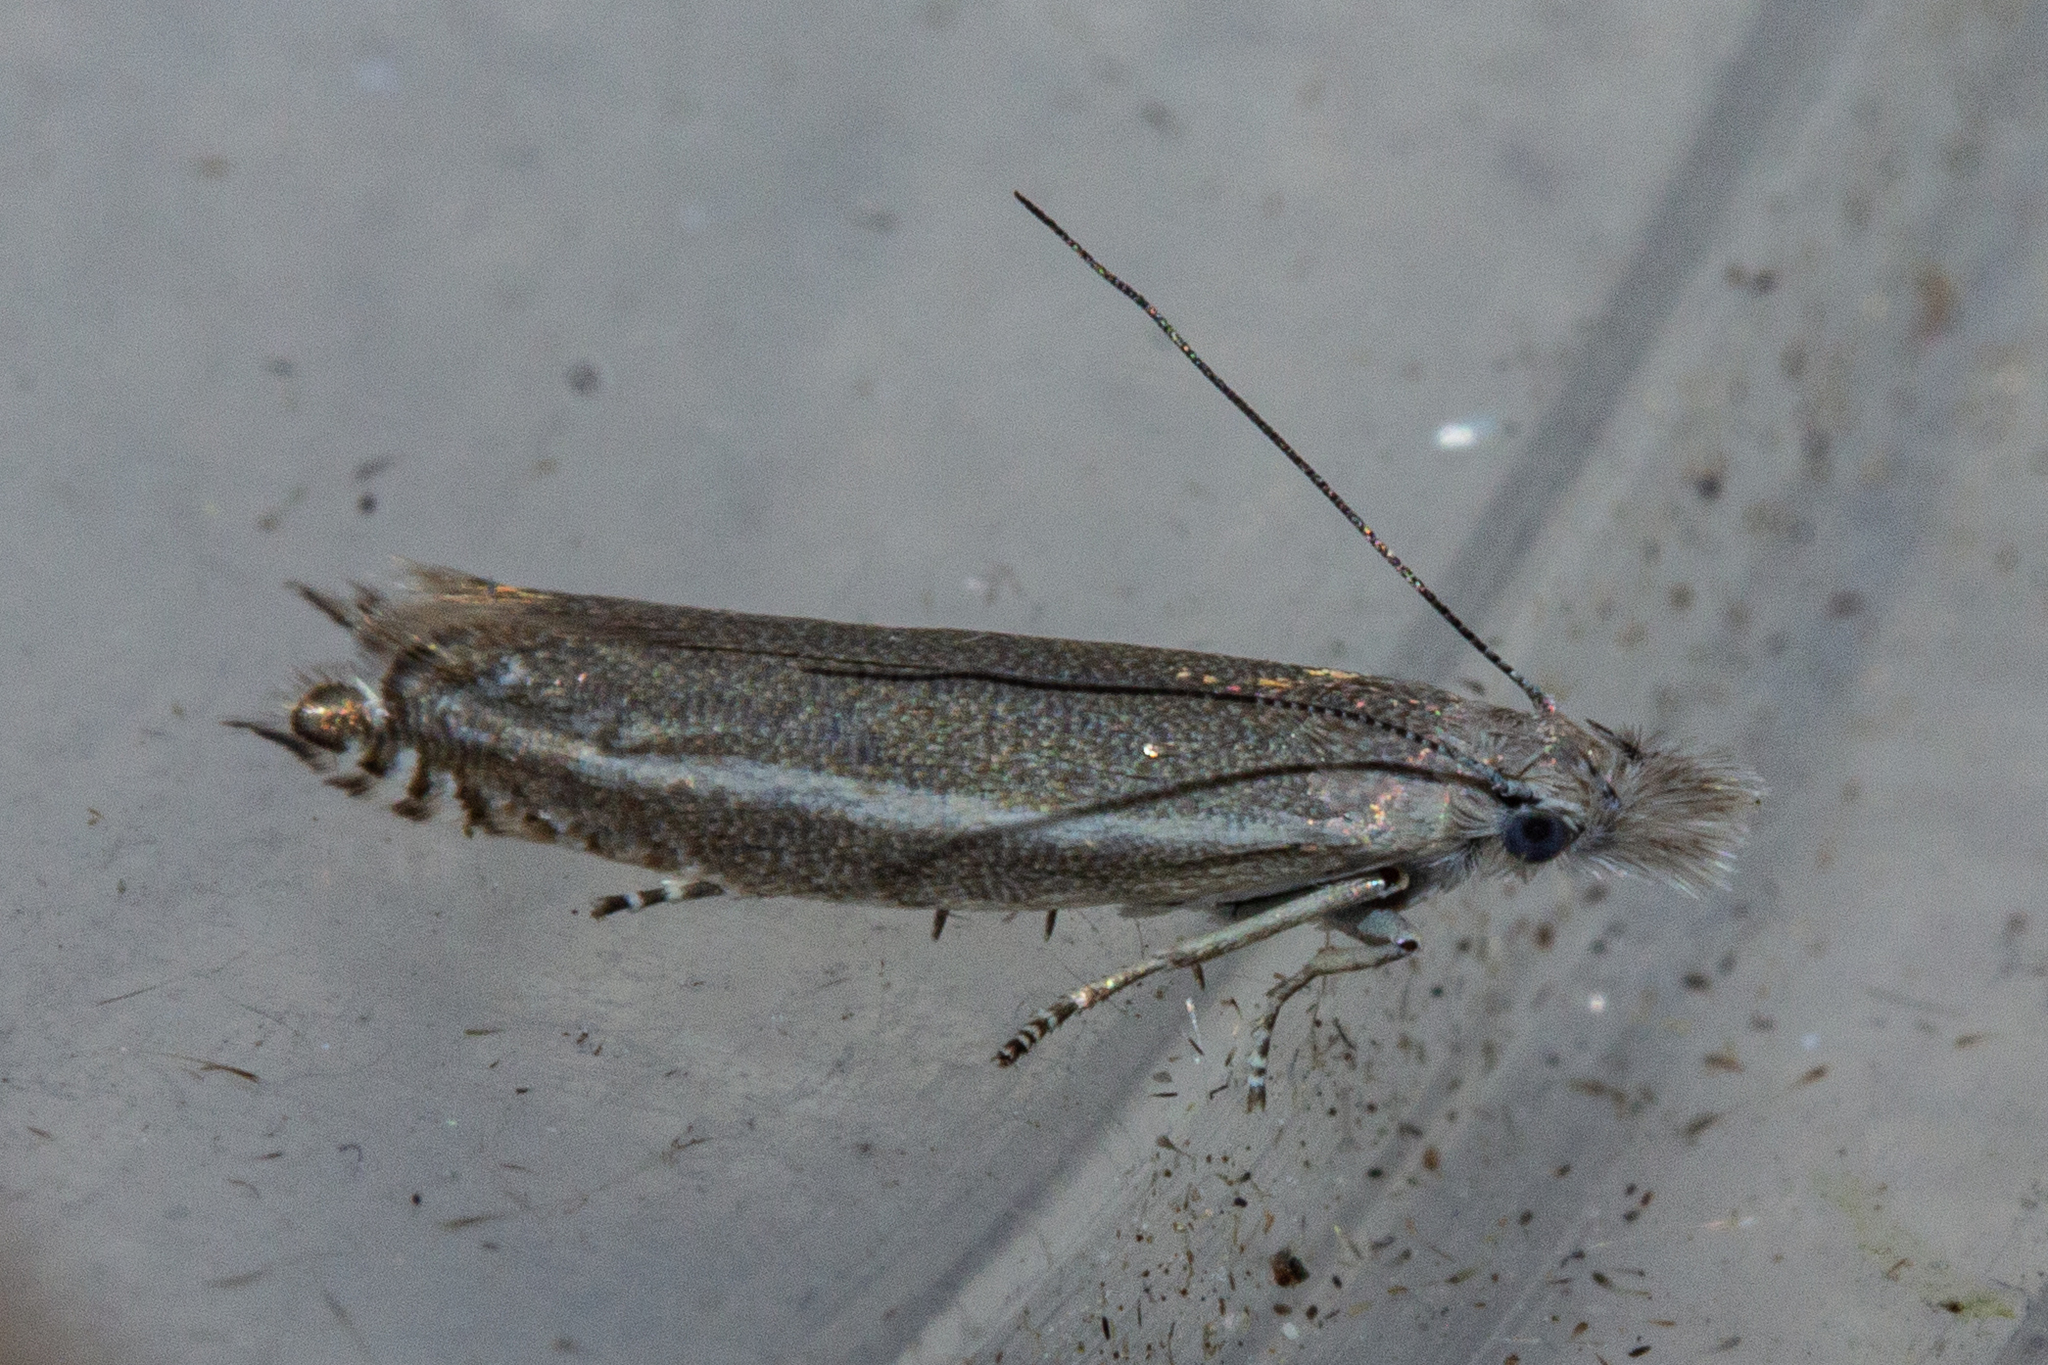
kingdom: Animalia
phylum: Arthropoda
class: Insecta
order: Lepidoptera
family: Glyphipterigidae
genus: Glyphipterix
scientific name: Glyphipterix barbata
